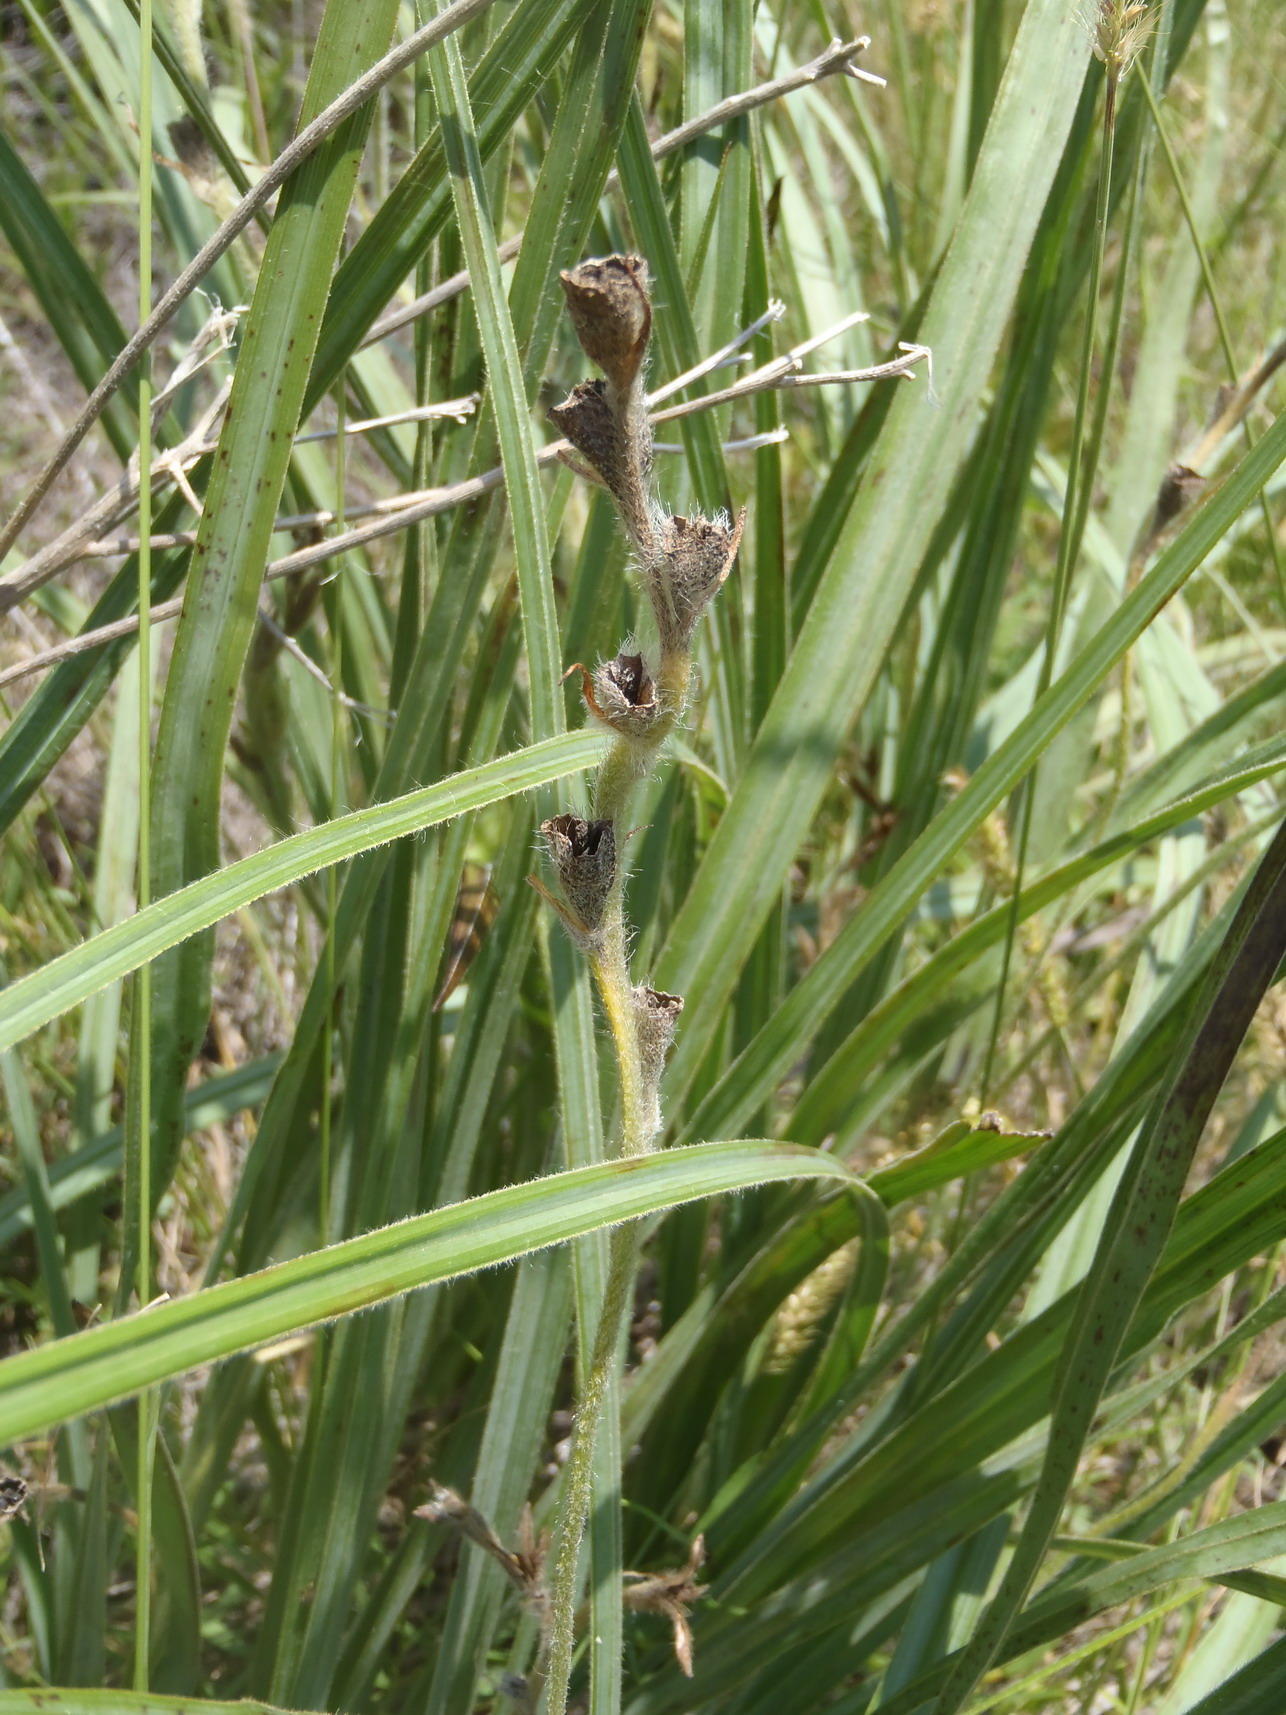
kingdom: Plantae
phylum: Tracheophyta
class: Liliopsida
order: Asparagales
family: Hypoxidaceae
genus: Hypoxis
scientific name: Hypoxis rigidula
